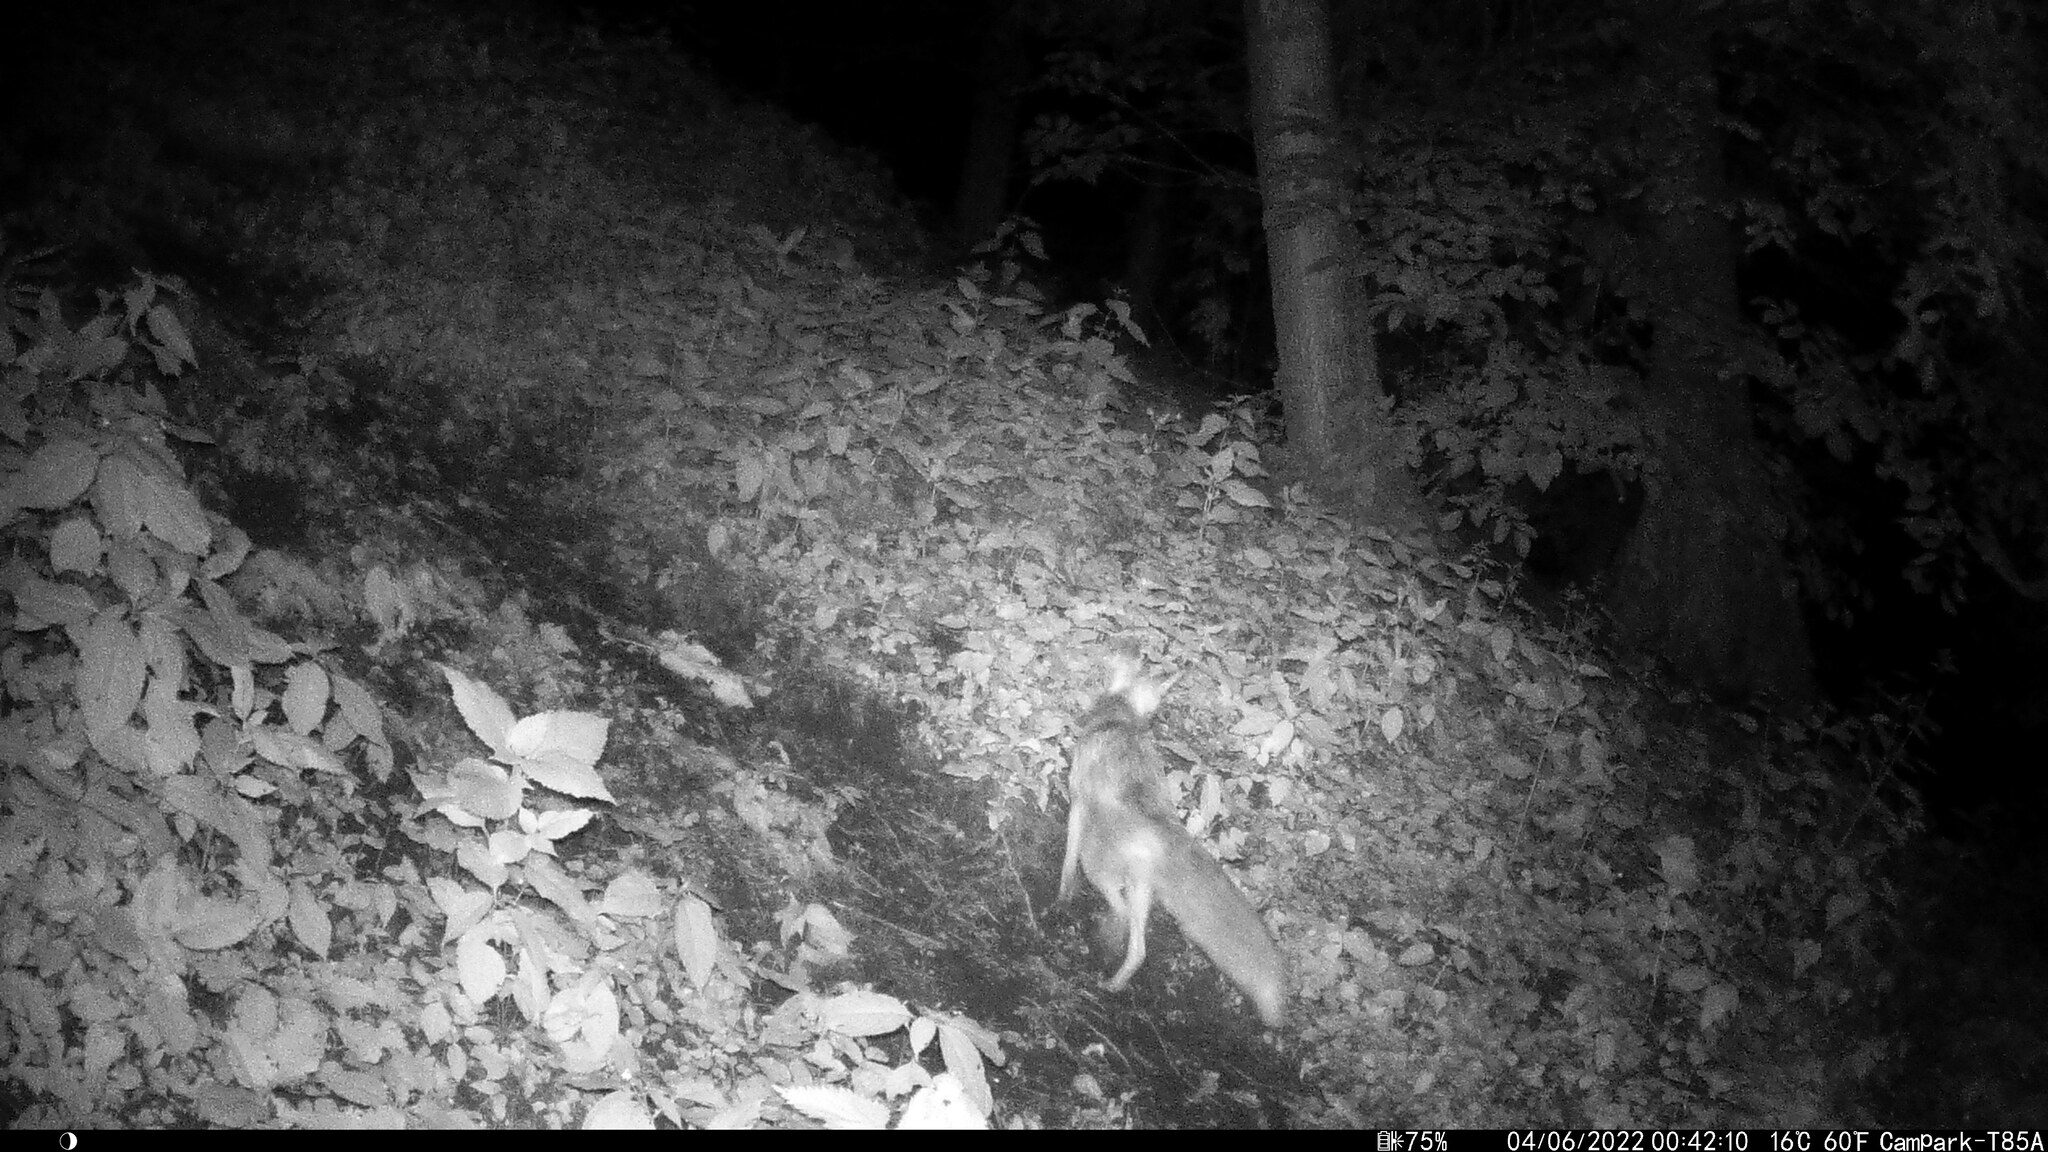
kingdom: Animalia
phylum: Chordata
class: Mammalia
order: Carnivora
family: Canidae
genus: Vulpes
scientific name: Vulpes vulpes
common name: Red fox
